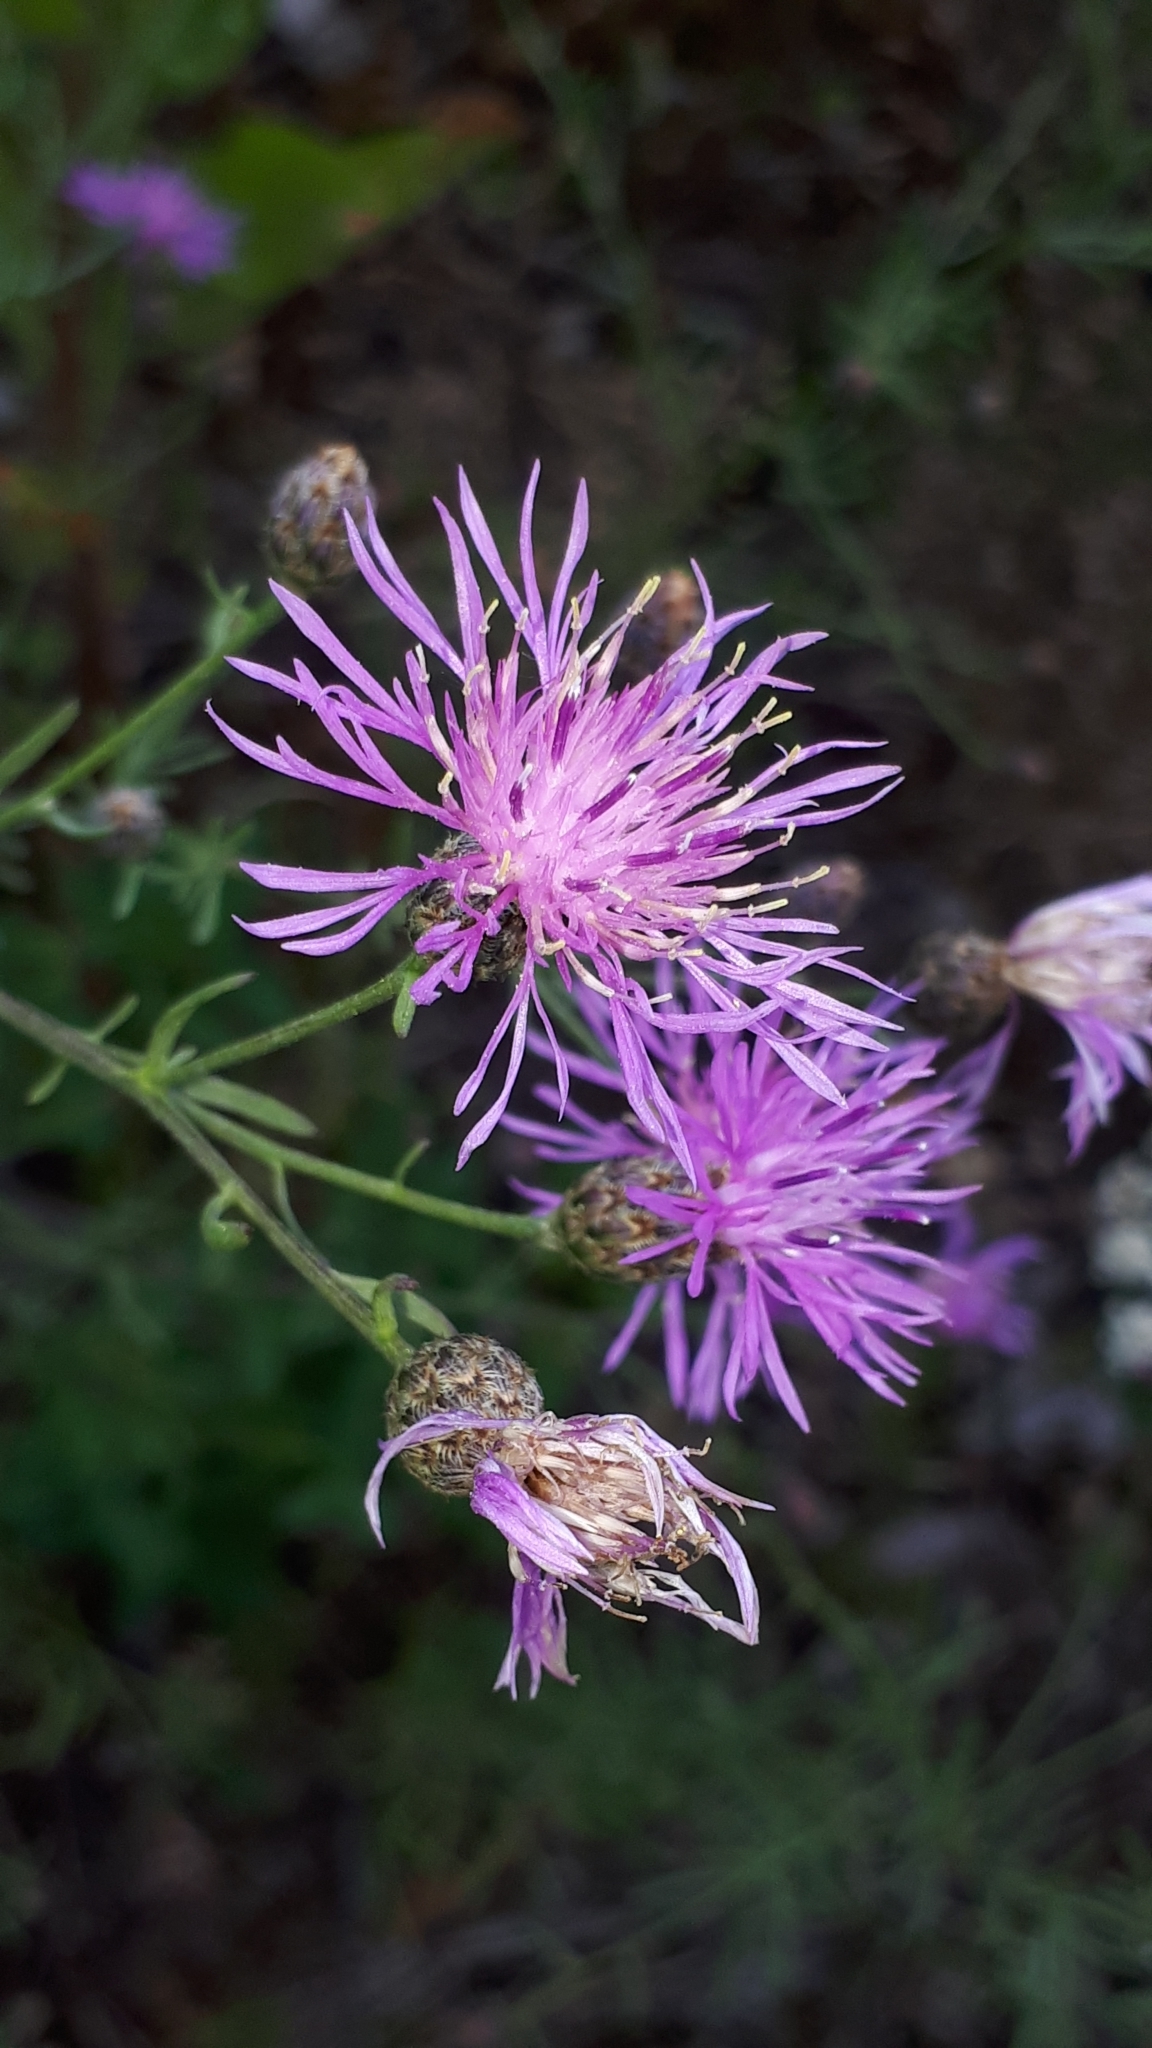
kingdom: Plantae
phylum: Tracheophyta
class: Magnoliopsida
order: Asterales
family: Asteraceae
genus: Centaurea
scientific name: Centaurea stoebe
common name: Spotted knapweed
